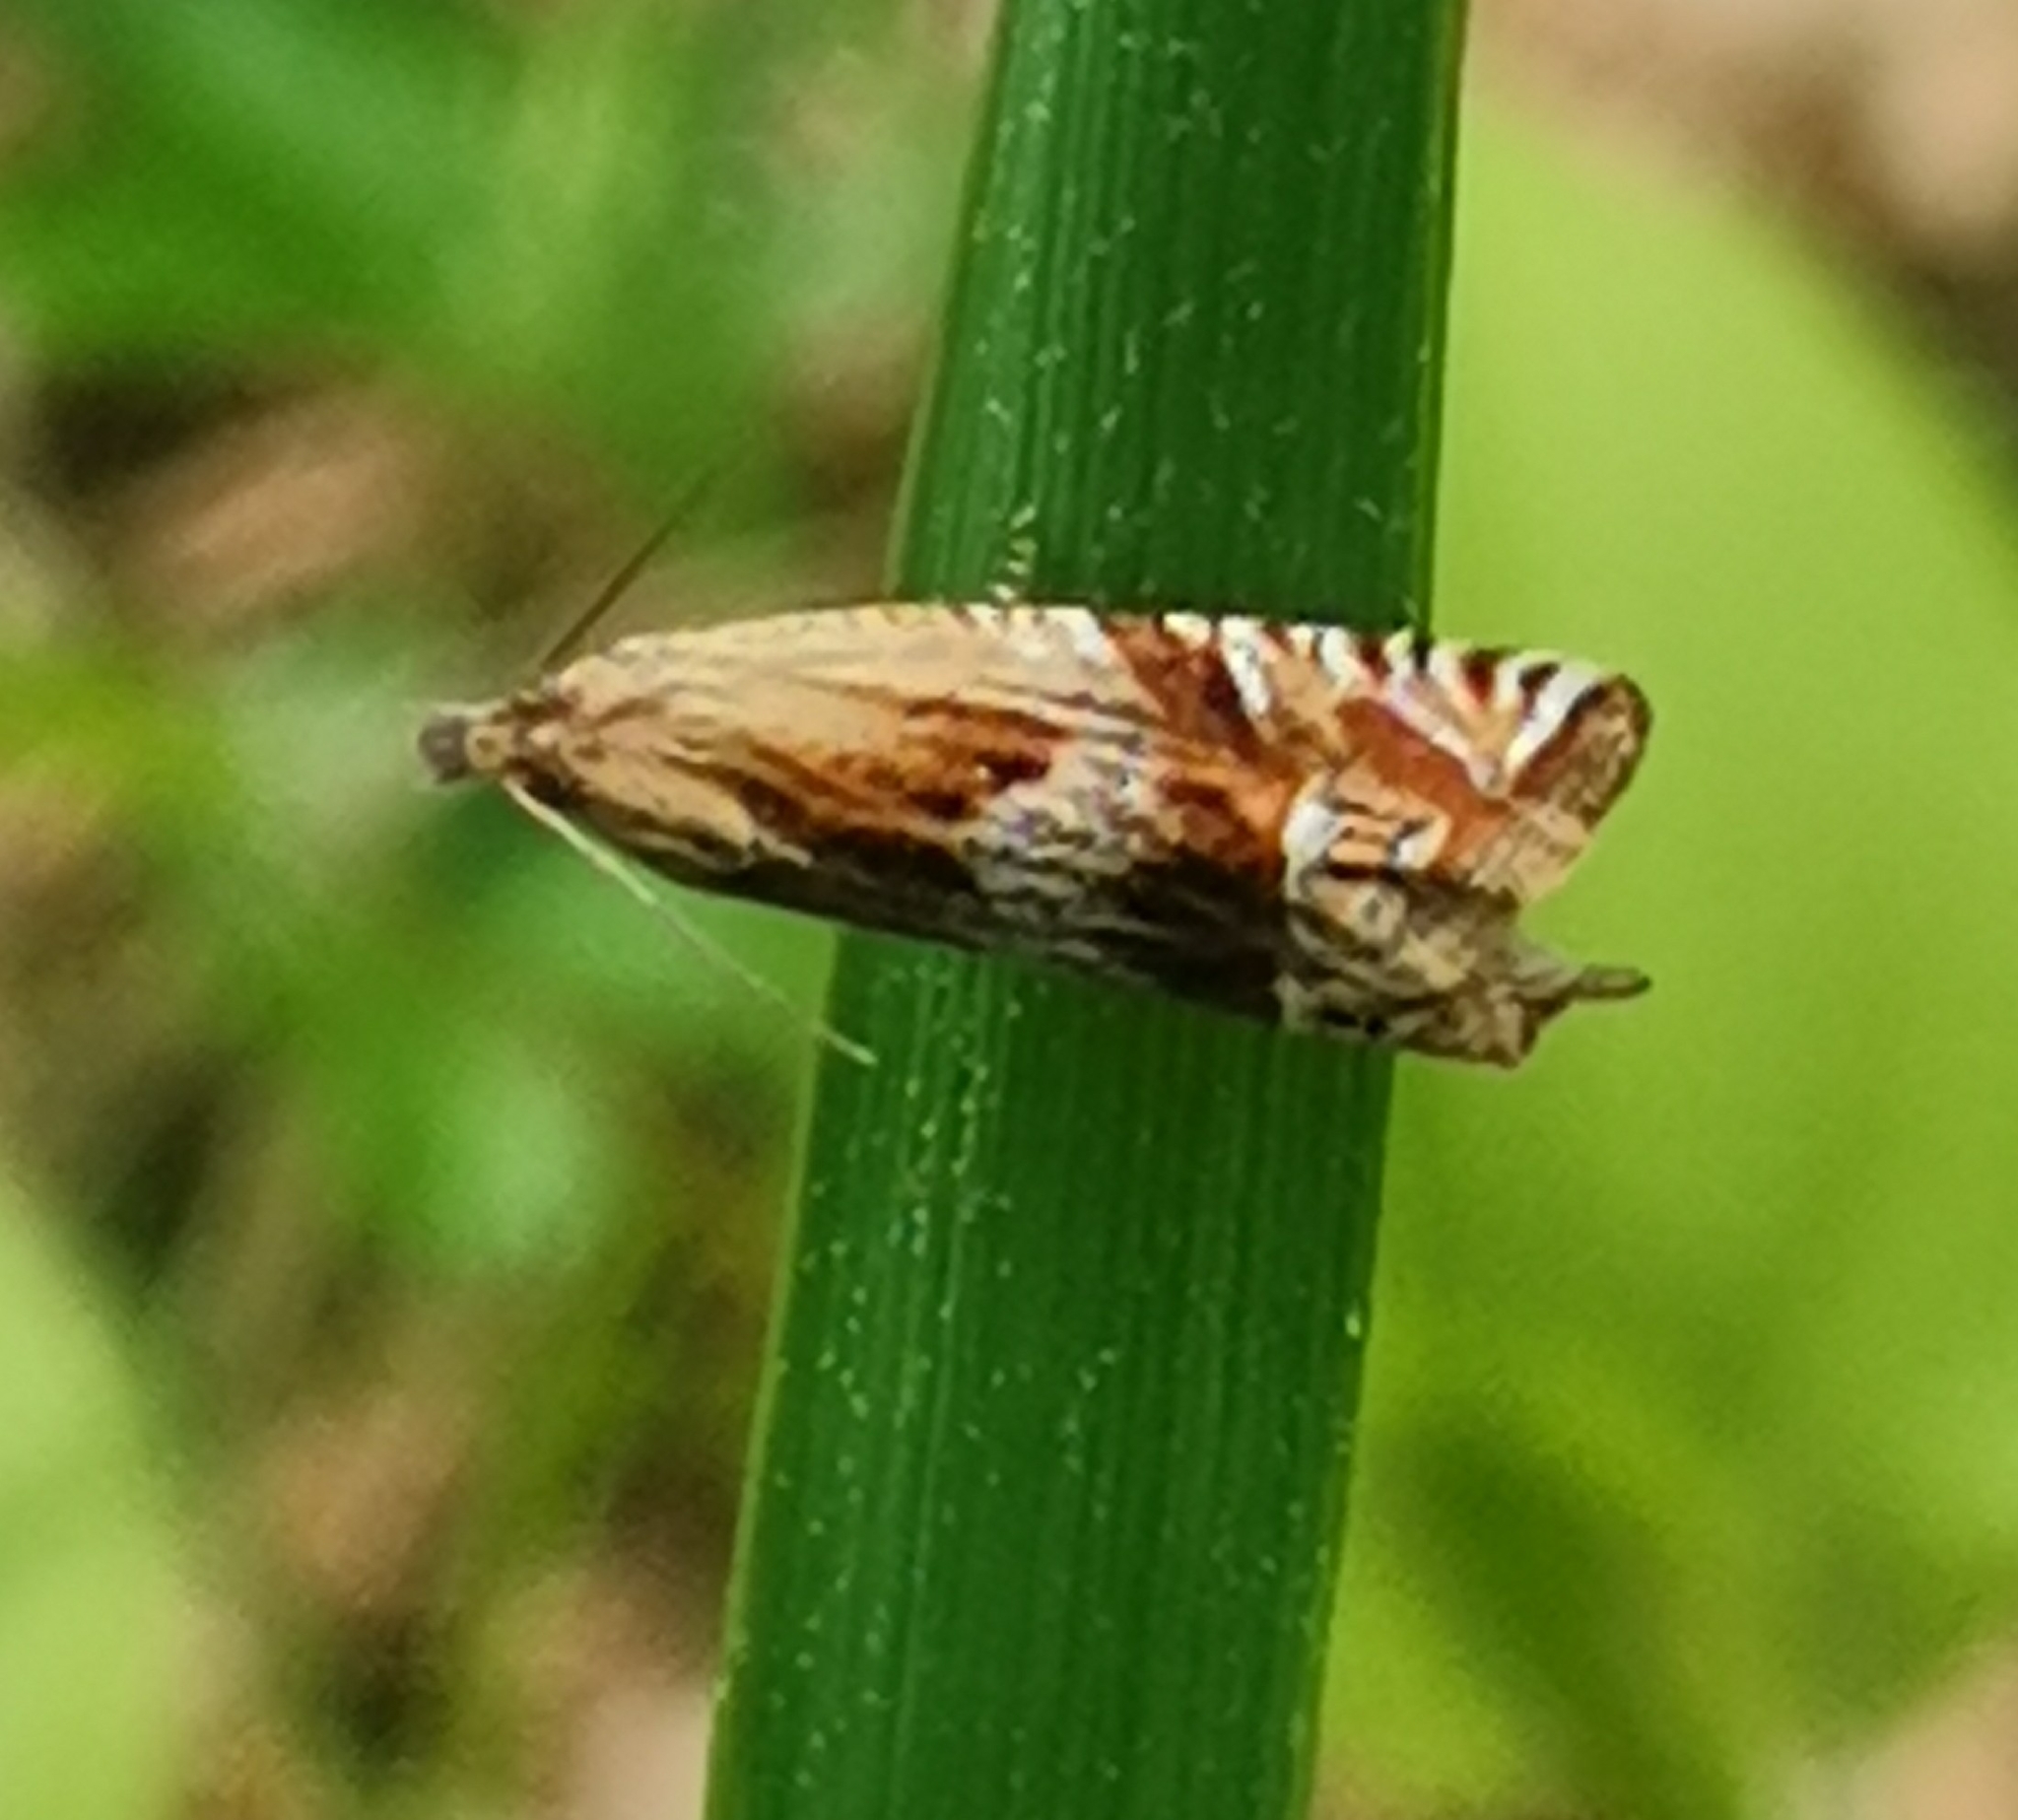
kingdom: Animalia
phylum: Arthropoda
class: Insecta
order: Lepidoptera
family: Tortricidae
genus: Eucosma
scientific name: Eucosma aspidiscana
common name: Golden-rod bell
